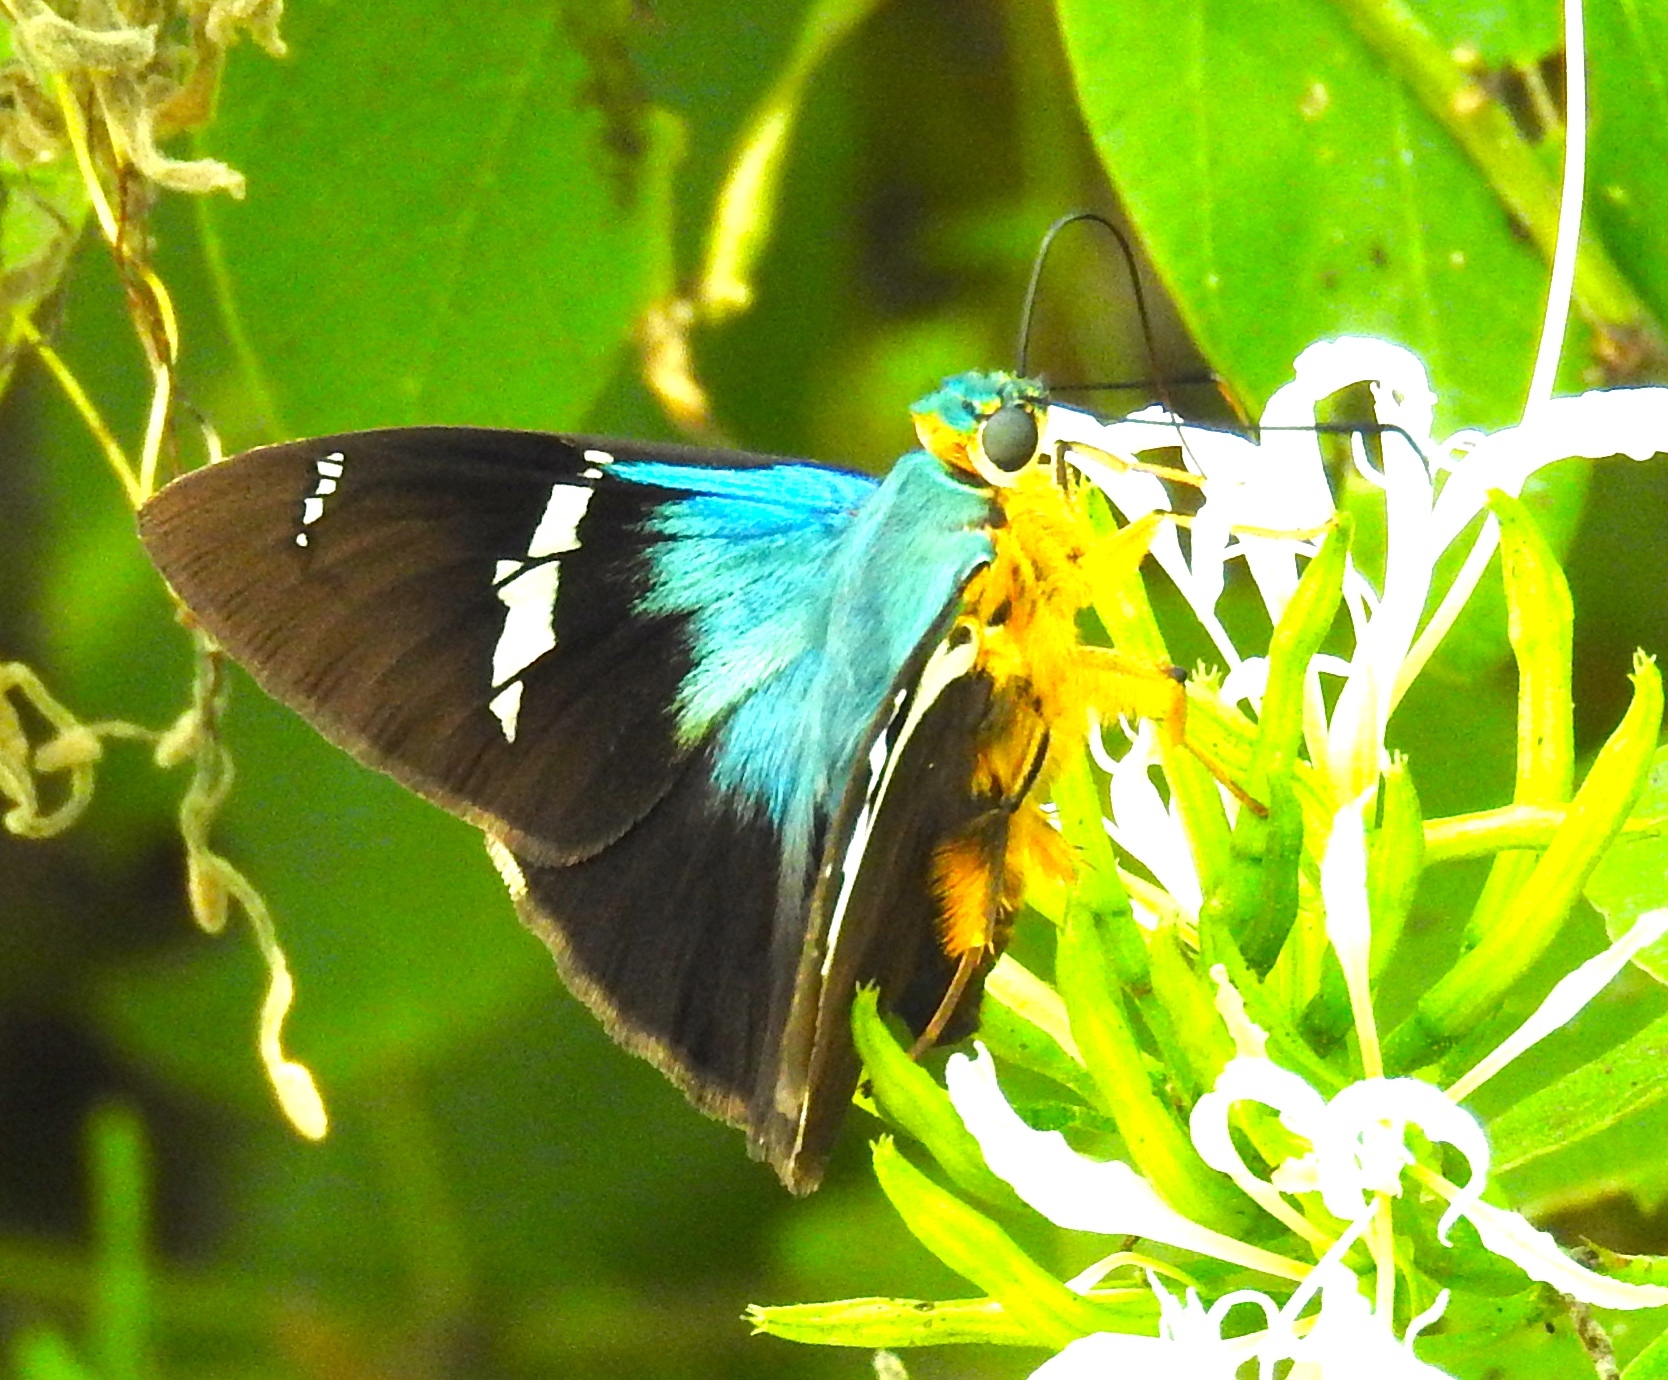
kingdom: Animalia
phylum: Arthropoda
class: Insecta
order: Lepidoptera
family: Hesperiidae
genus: Astraptes
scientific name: Astraptes fulgerator
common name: Two-barred flasher
